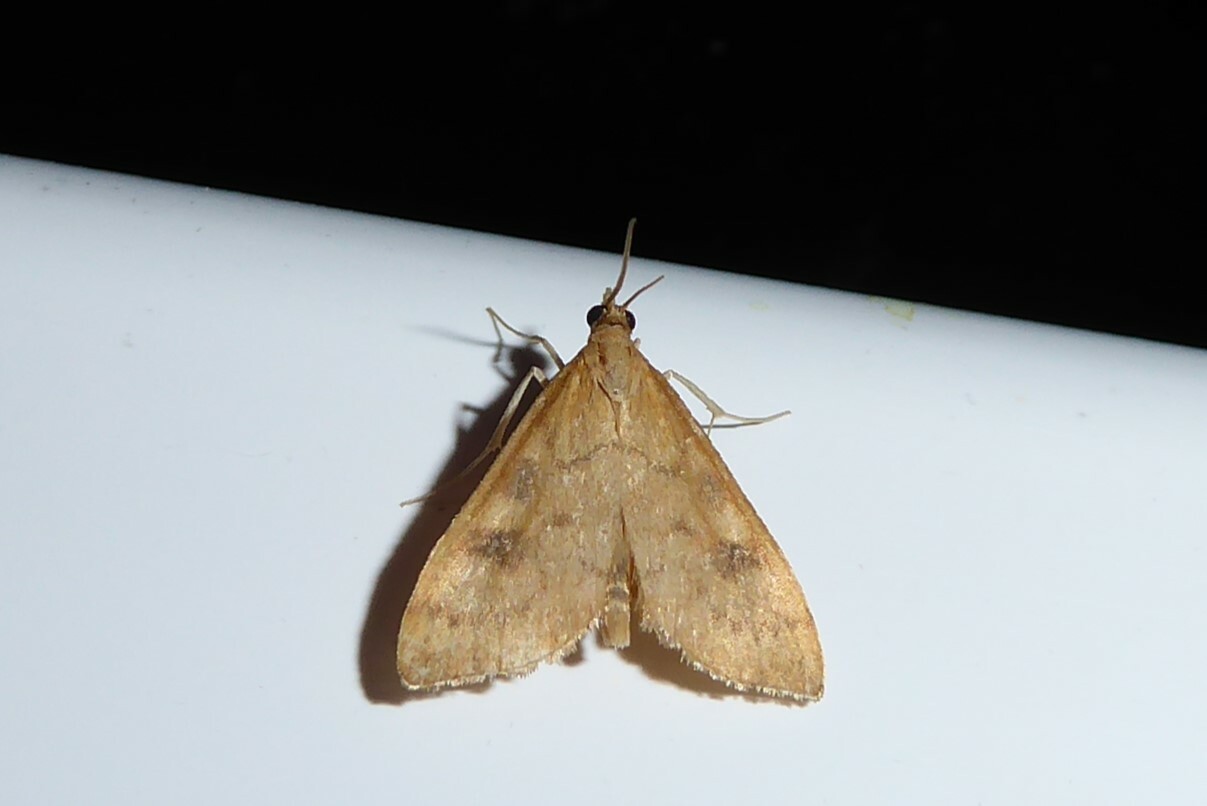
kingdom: Animalia
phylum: Arthropoda
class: Insecta
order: Lepidoptera
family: Crambidae
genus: Udea
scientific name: Udea Mnesictena flavidalis
